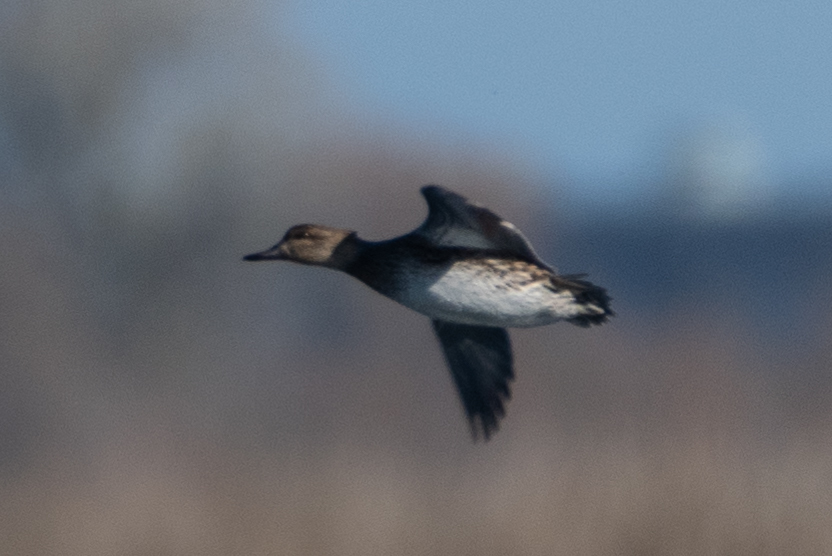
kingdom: Animalia
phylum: Chordata
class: Aves
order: Anseriformes
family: Anatidae
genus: Anas
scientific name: Anas crecca
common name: Eurasian teal
